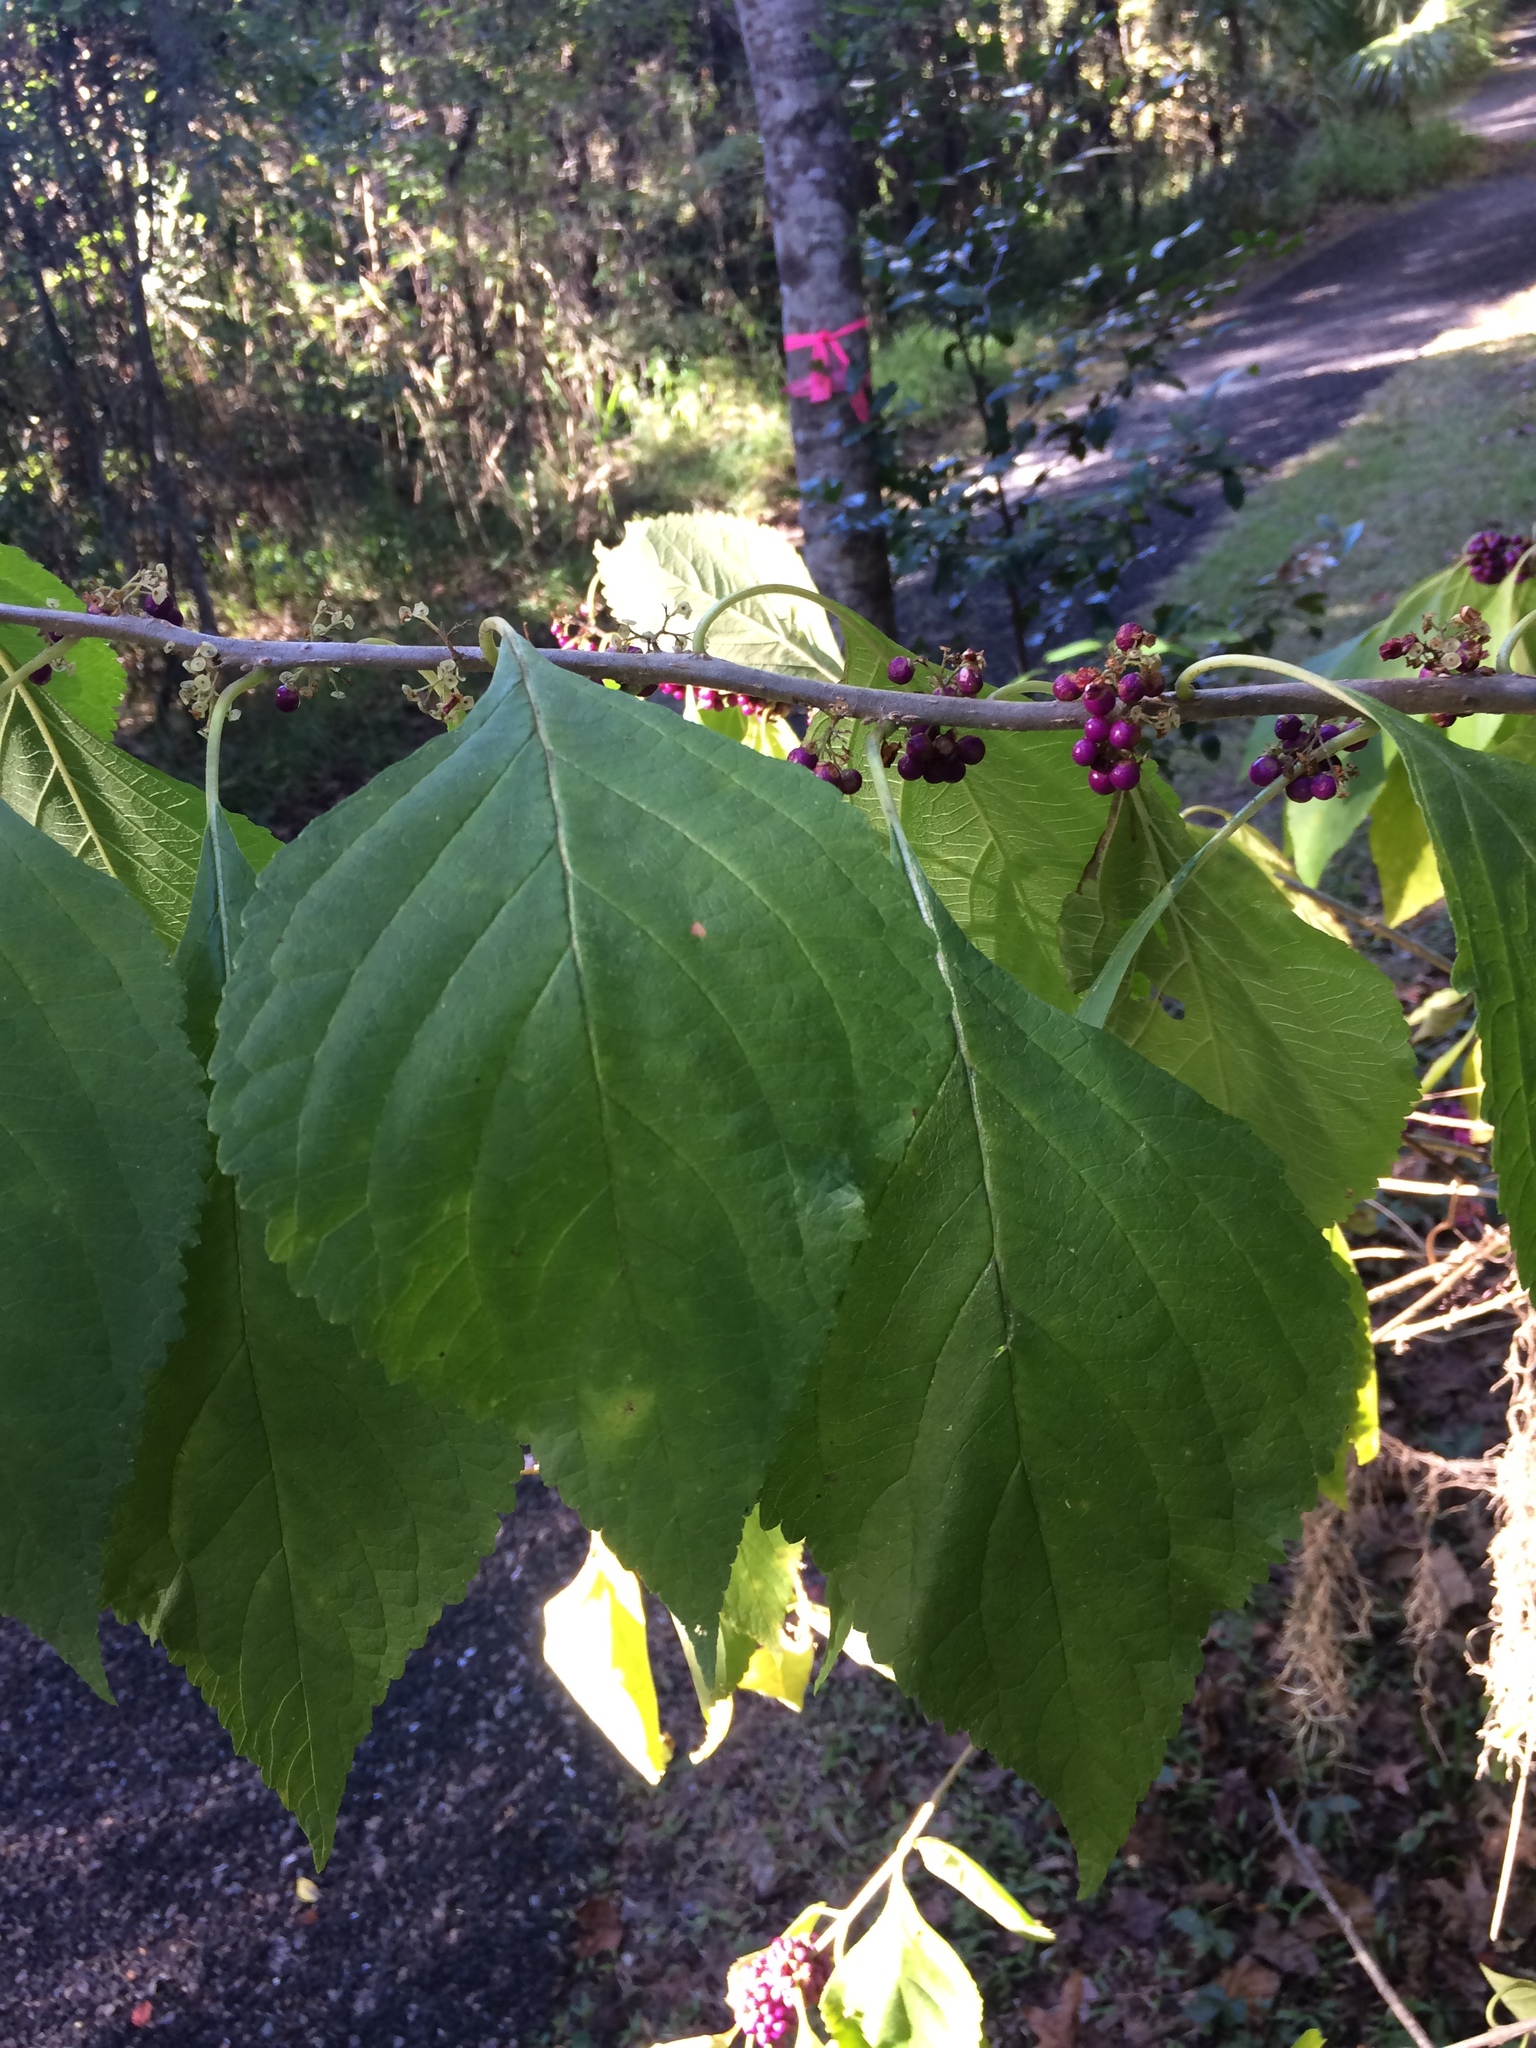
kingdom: Plantae
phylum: Tracheophyta
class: Magnoliopsida
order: Lamiales
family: Lamiaceae
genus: Callicarpa
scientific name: Callicarpa americana
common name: American beautyberry
